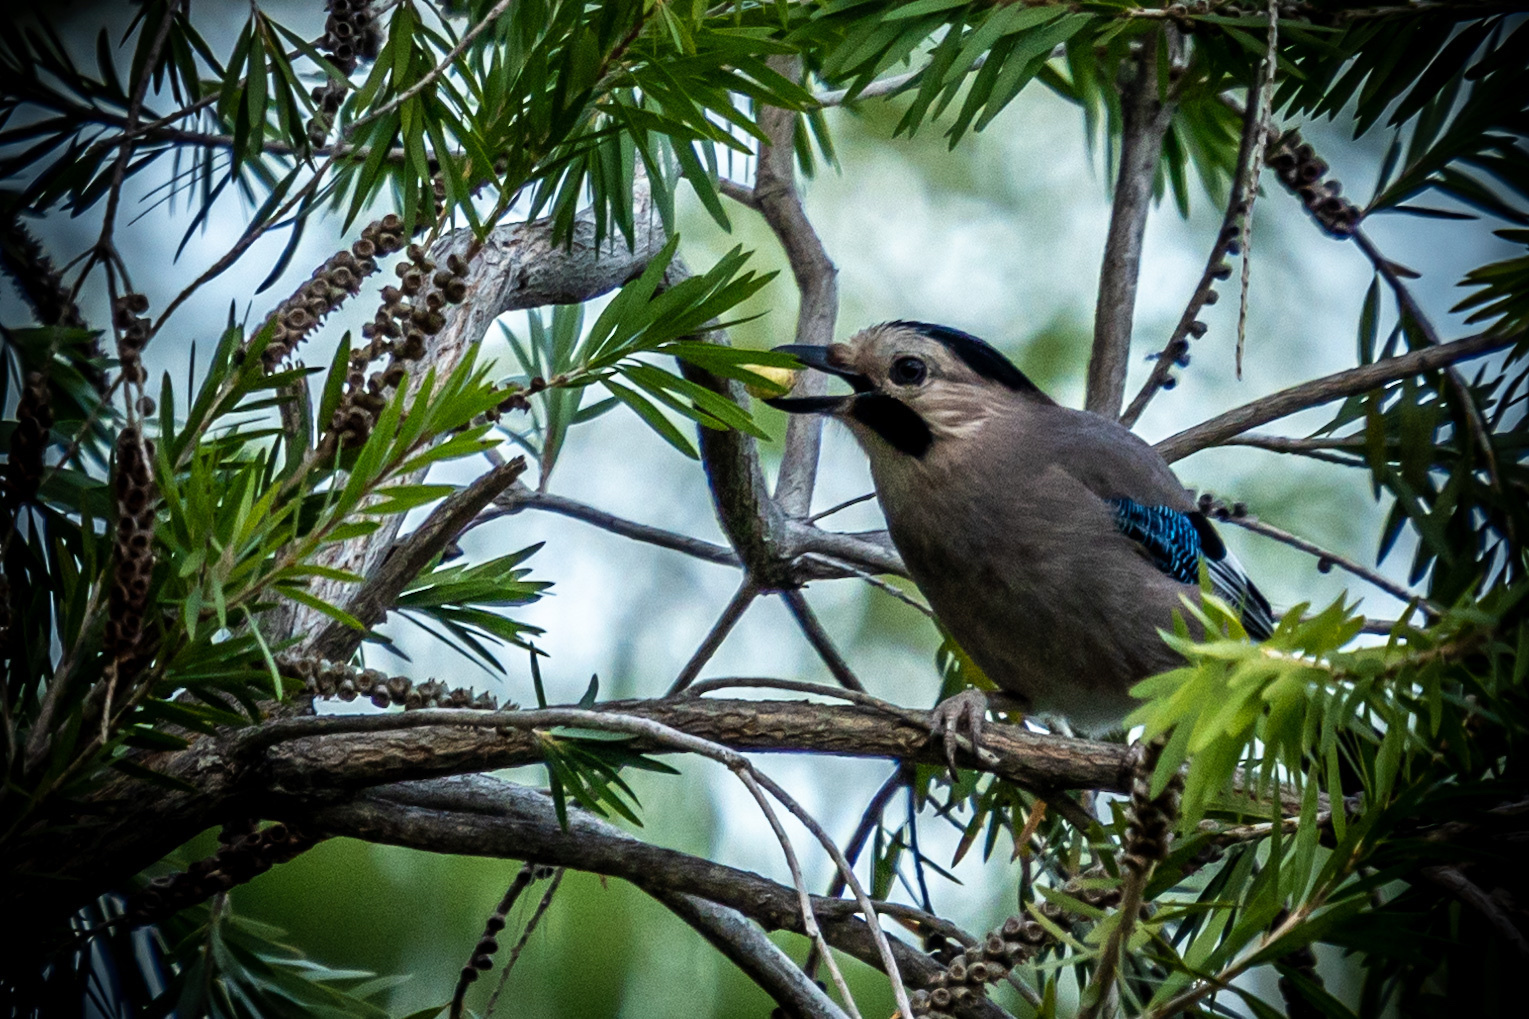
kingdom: Animalia
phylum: Chordata
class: Aves
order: Passeriformes
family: Corvidae
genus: Garrulus
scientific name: Garrulus glandarius
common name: Eurasian jay
